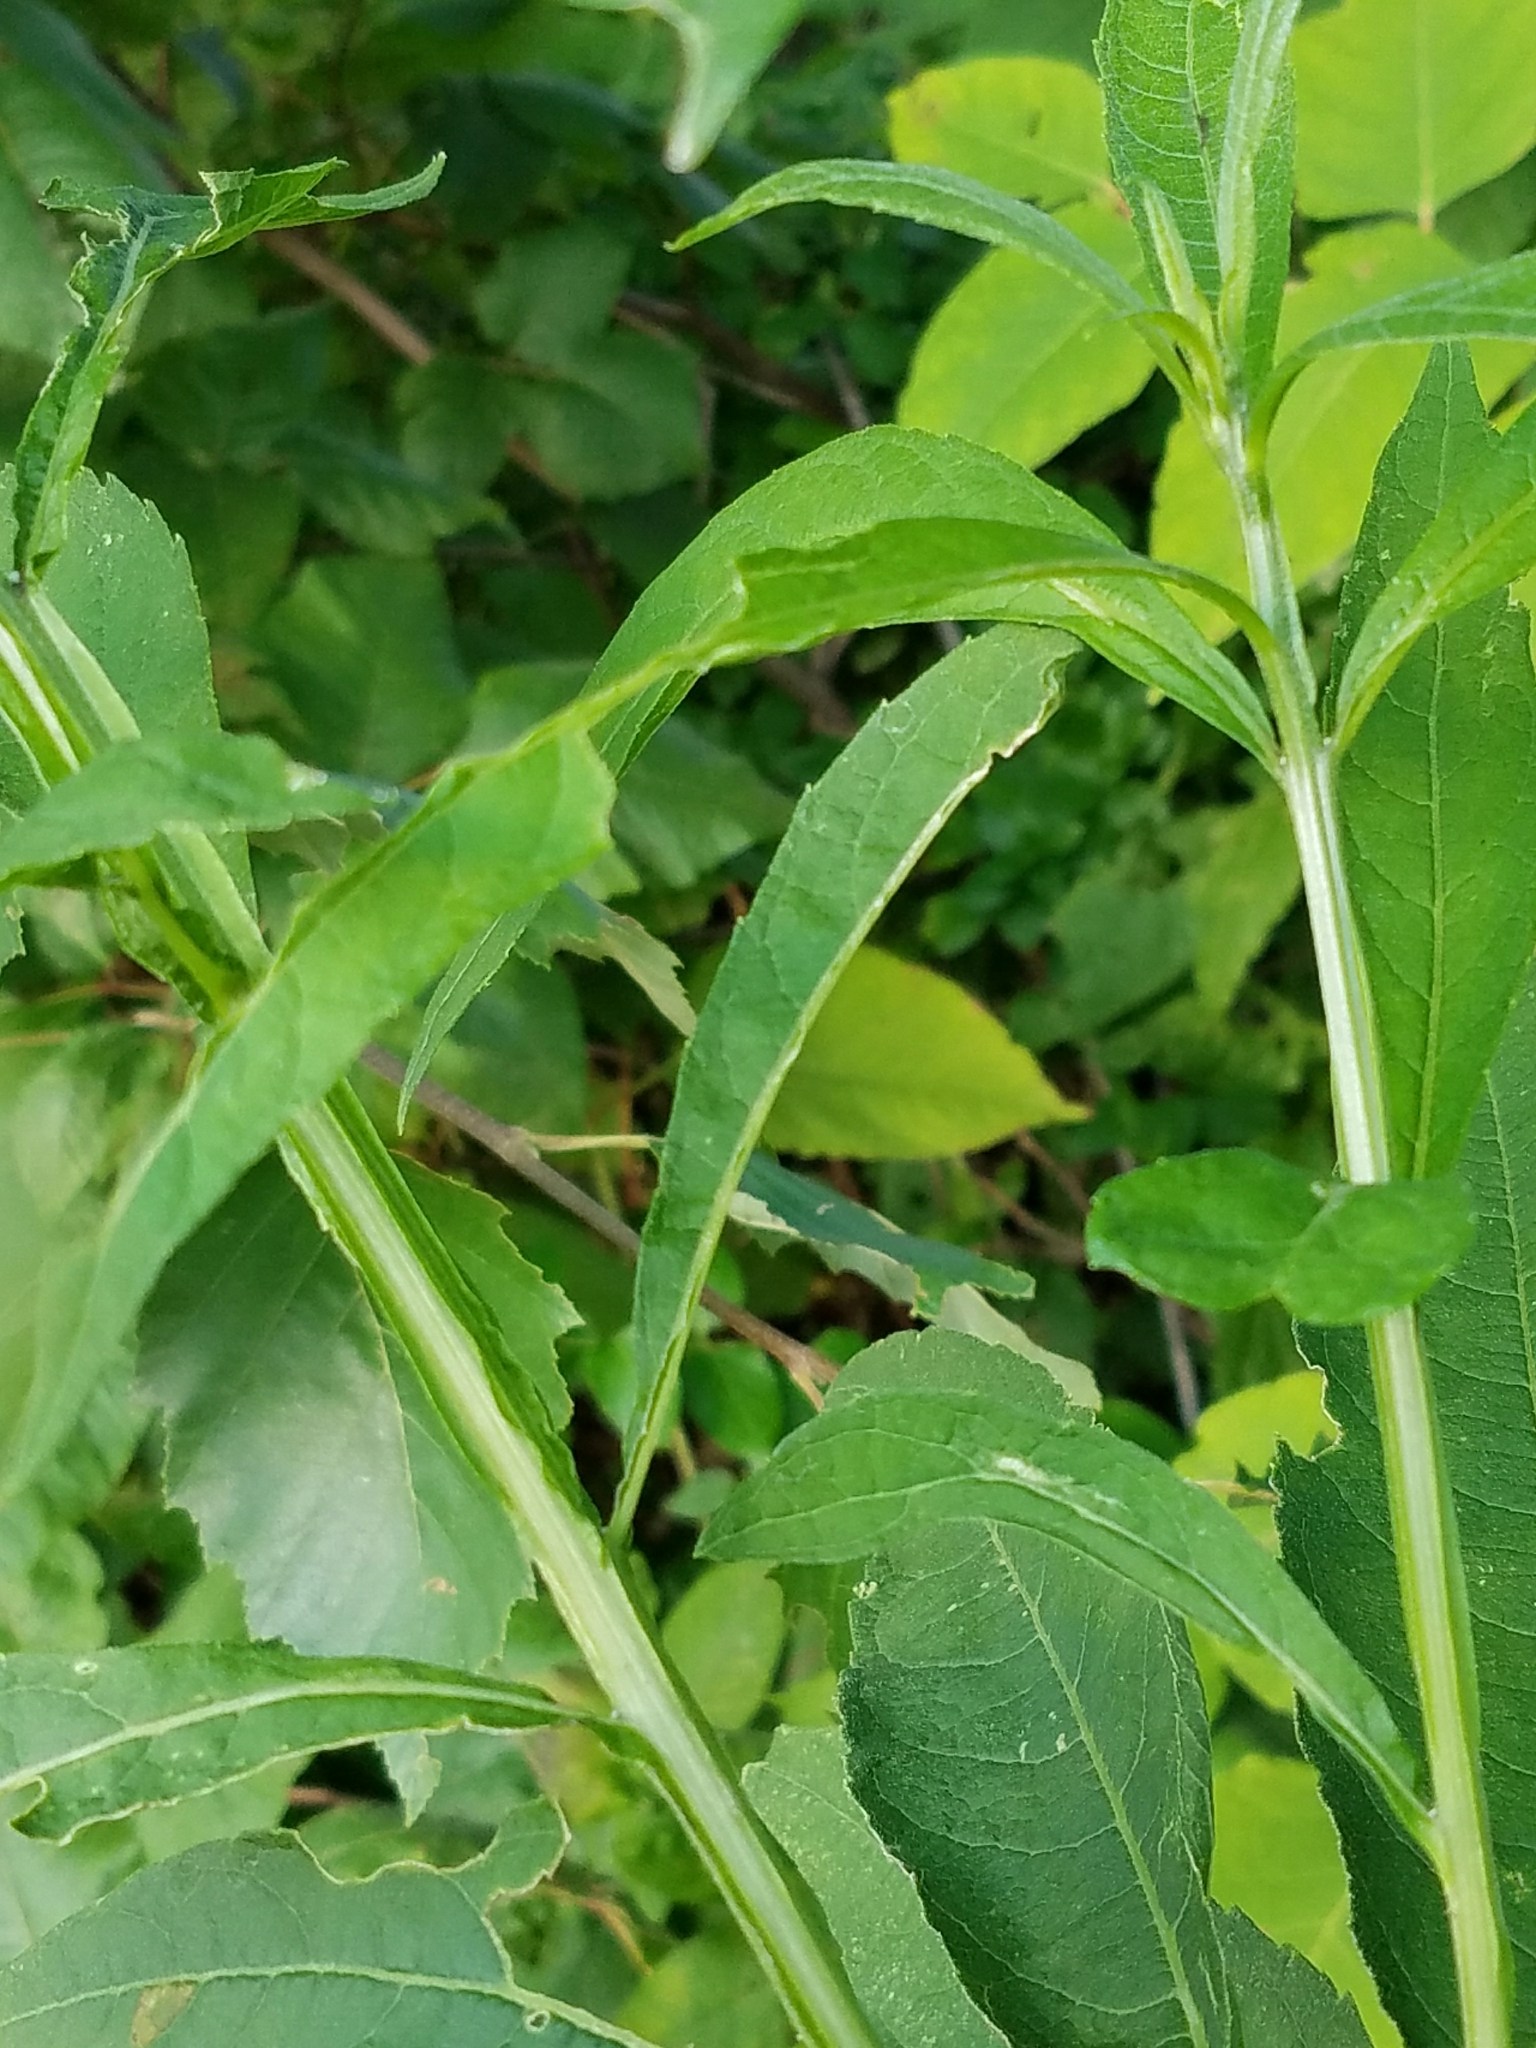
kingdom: Plantae
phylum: Tracheophyta
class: Magnoliopsida
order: Asterales
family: Asteraceae
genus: Verbesina
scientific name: Verbesina alternifolia
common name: Wingstem
